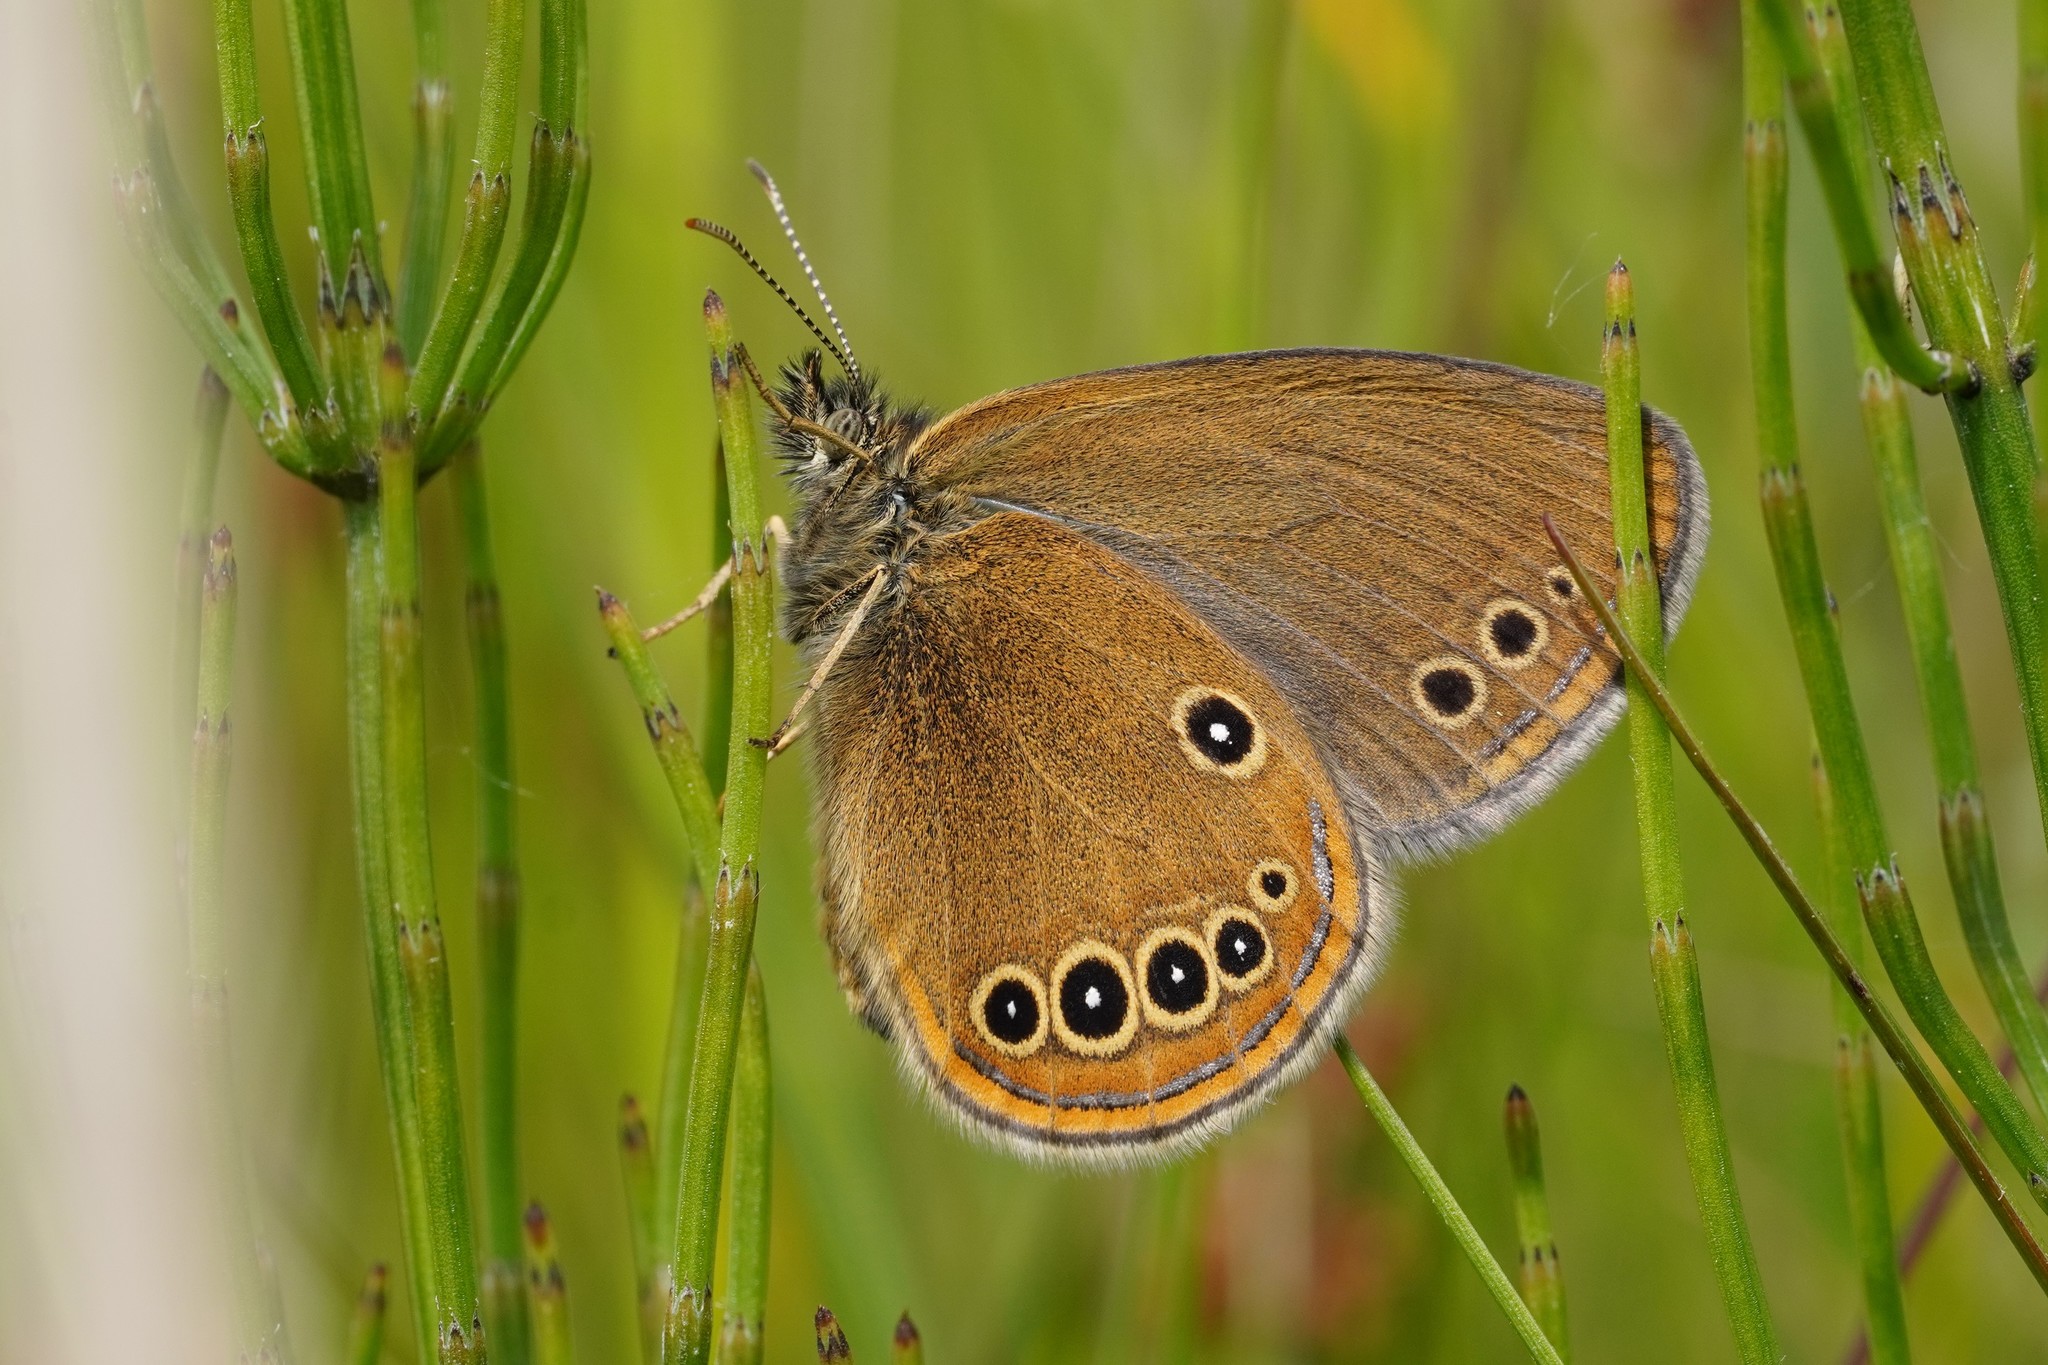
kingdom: Animalia
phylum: Arthropoda
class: Insecta
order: Lepidoptera
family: Nymphalidae
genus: Coenonympha
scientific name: Coenonympha oedippus
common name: False ringlet
